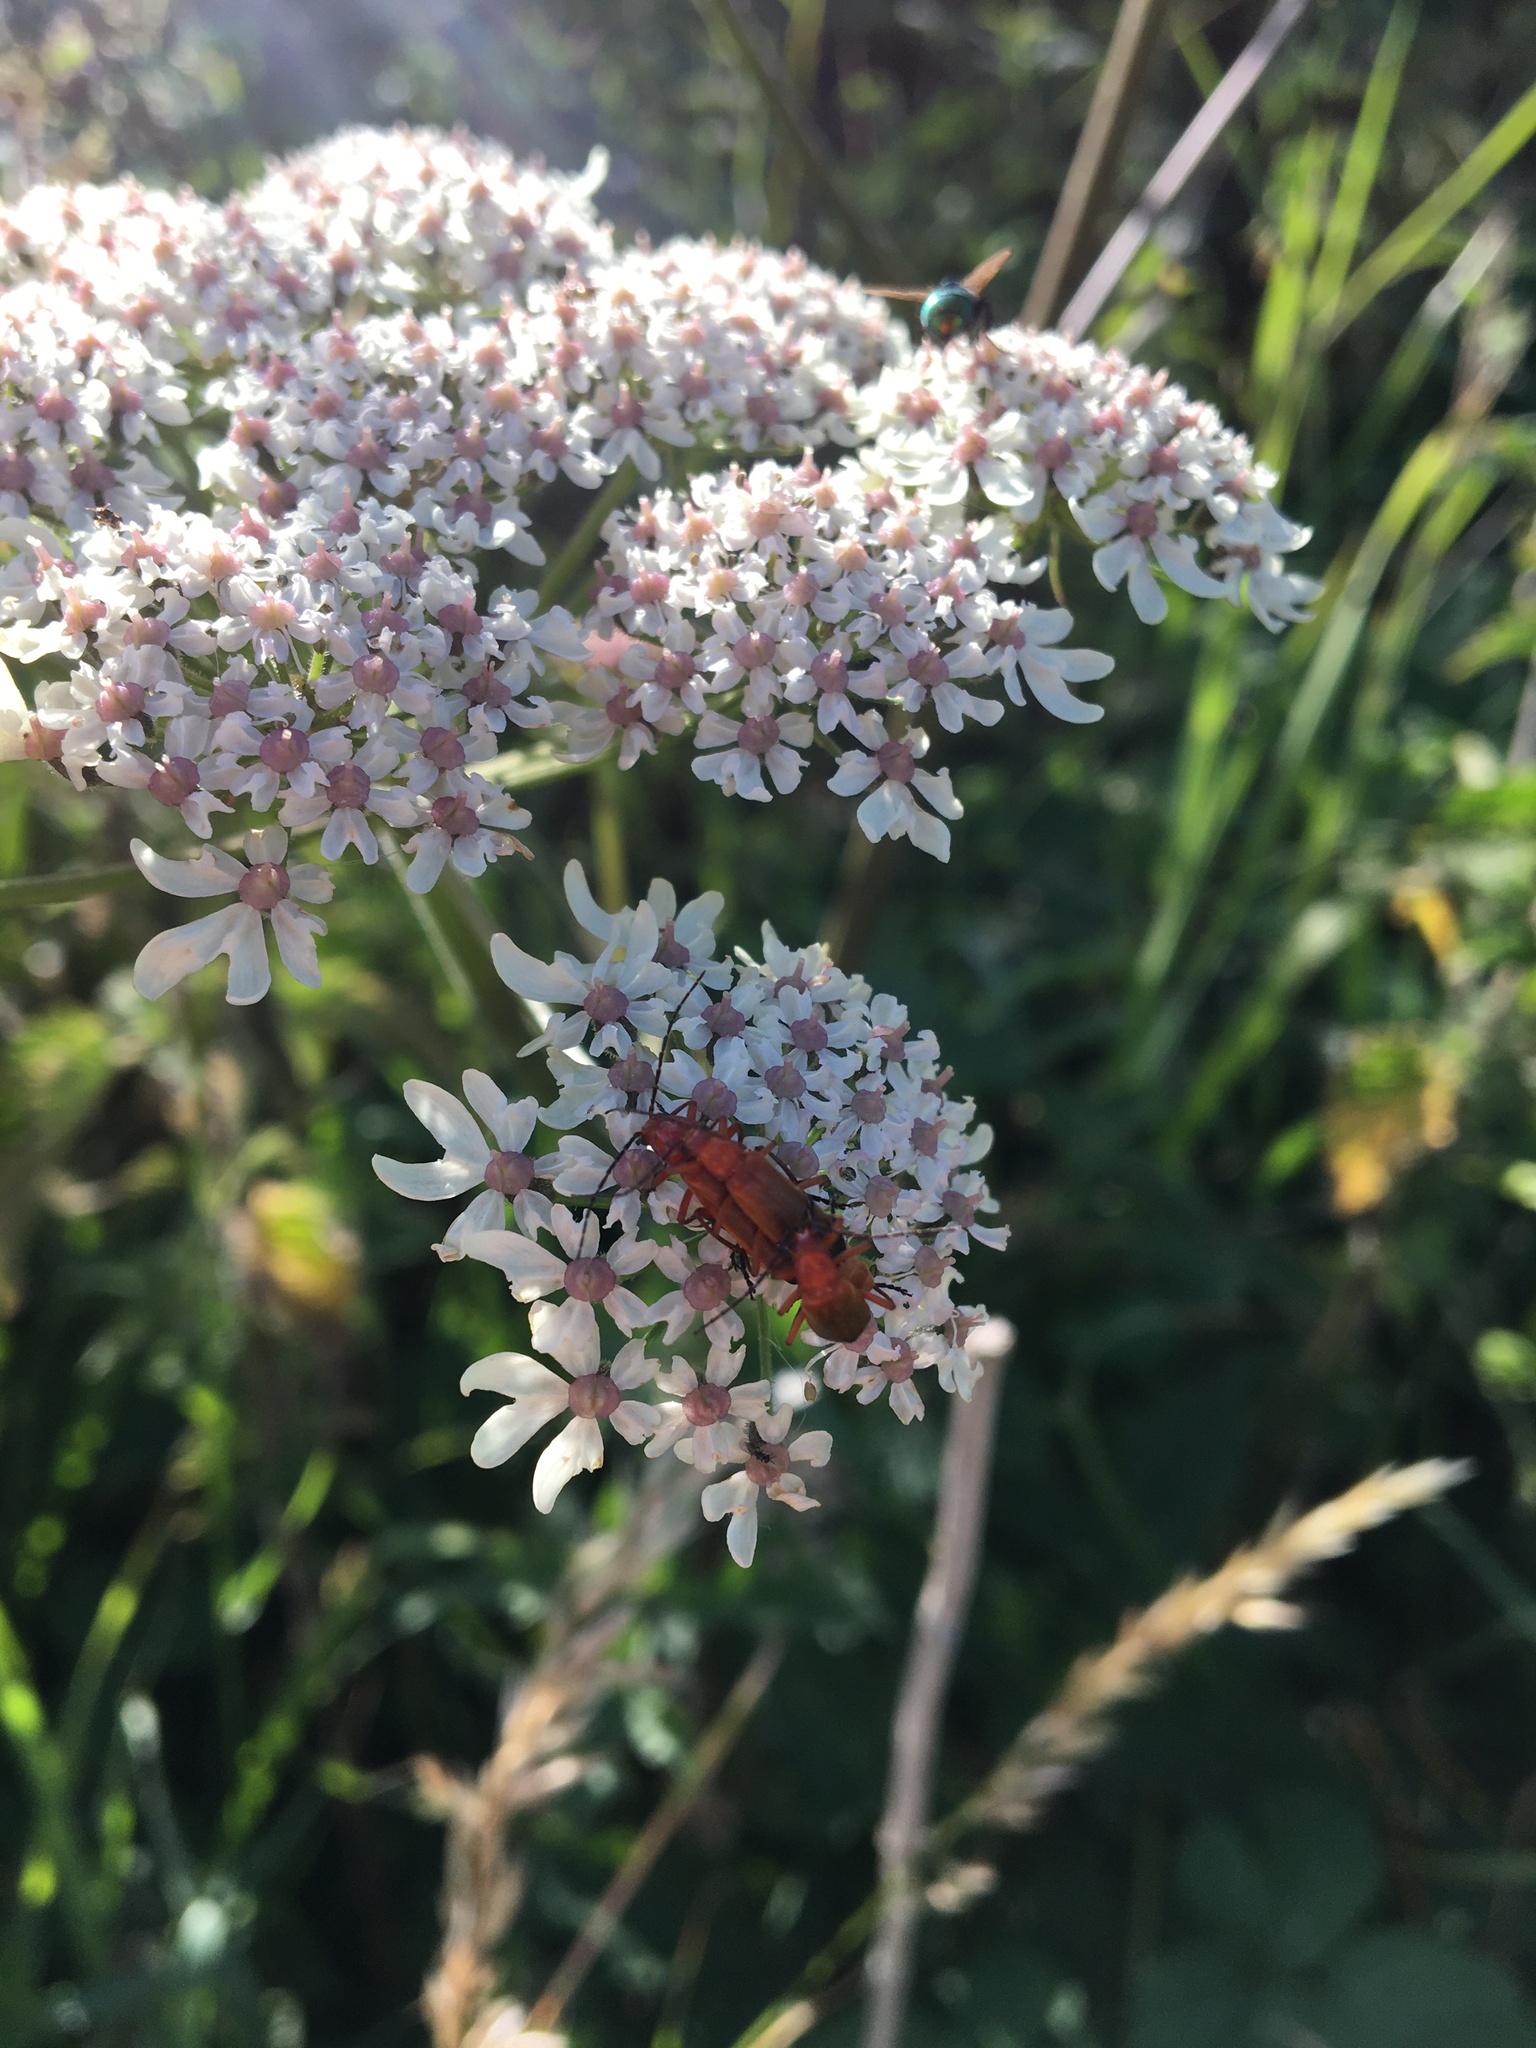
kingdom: Animalia
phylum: Arthropoda
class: Insecta
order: Coleoptera
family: Cantharidae
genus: Rhagonycha
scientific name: Rhagonycha fulva
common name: Common red soldier beetle
